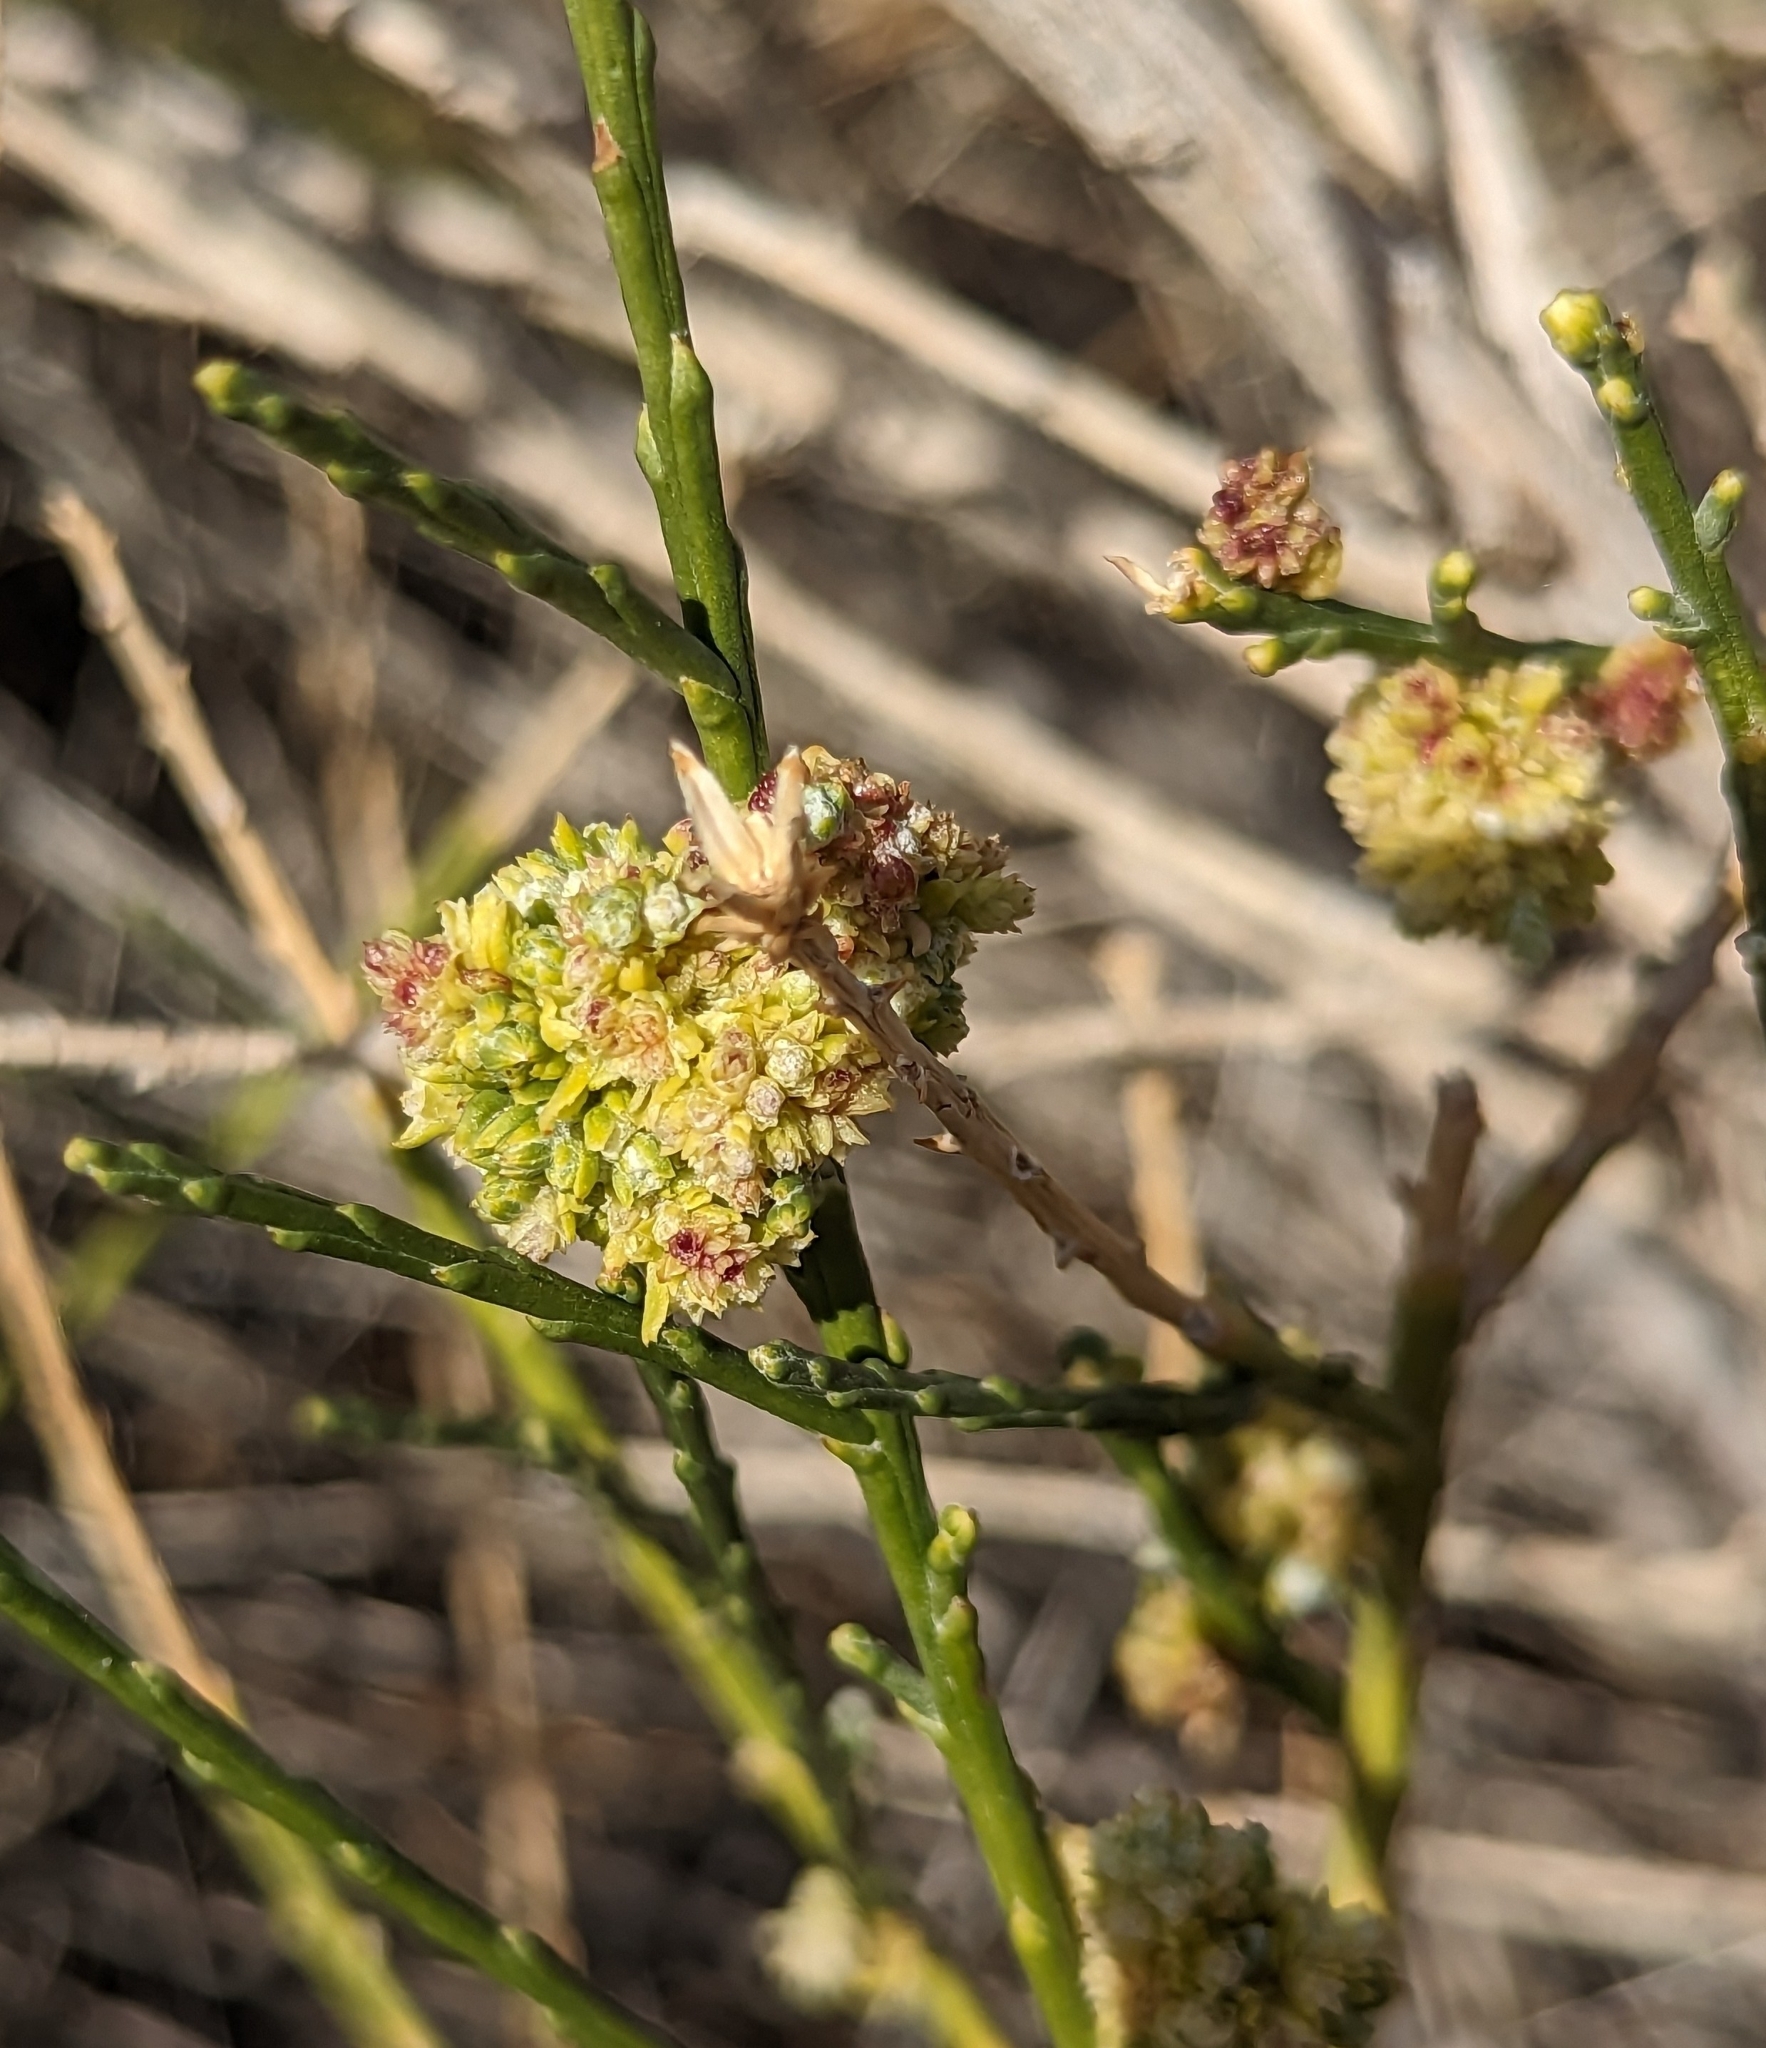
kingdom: Plantae
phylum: Tracheophyta
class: Magnoliopsida
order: Asterales
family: Asteraceae
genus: Lepidospartum
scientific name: Lepidospartum squamatum
